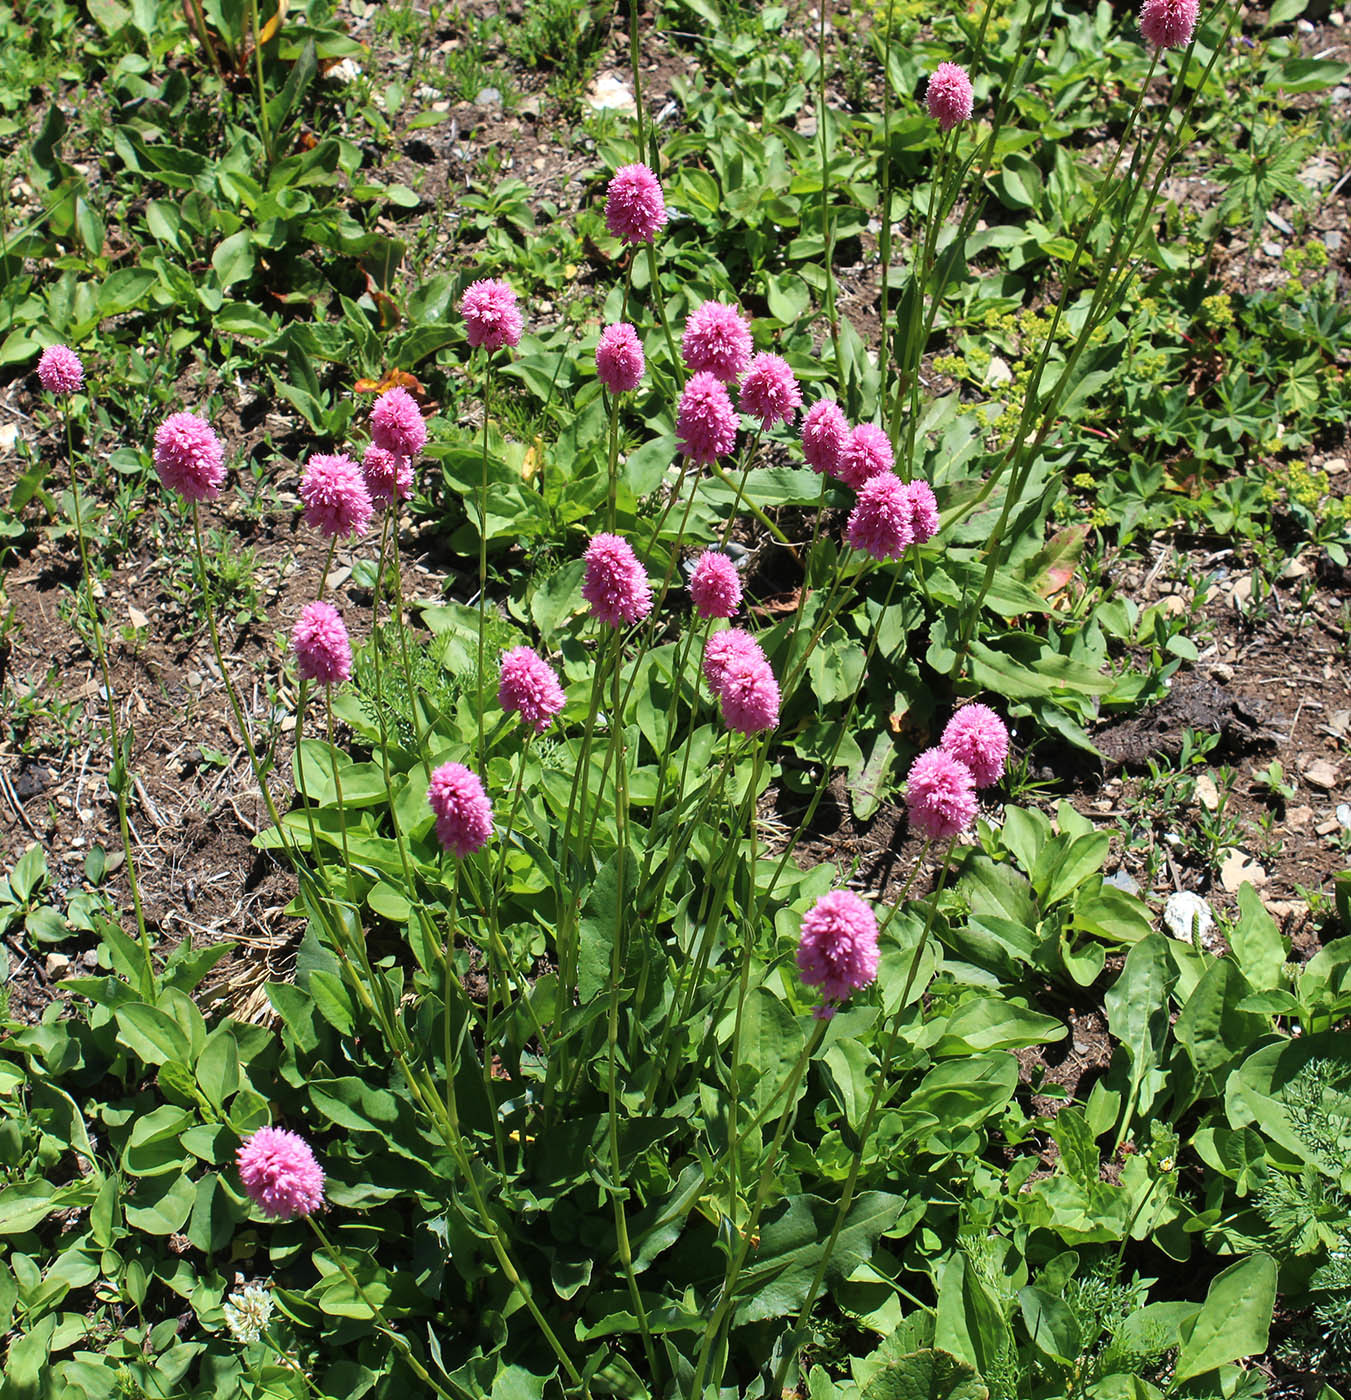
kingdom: Plantae
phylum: Tracheophyta
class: Magnoliopsida
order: Caryophyllales
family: Polygonaceae
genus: Bistorta
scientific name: Bistorta carnea
